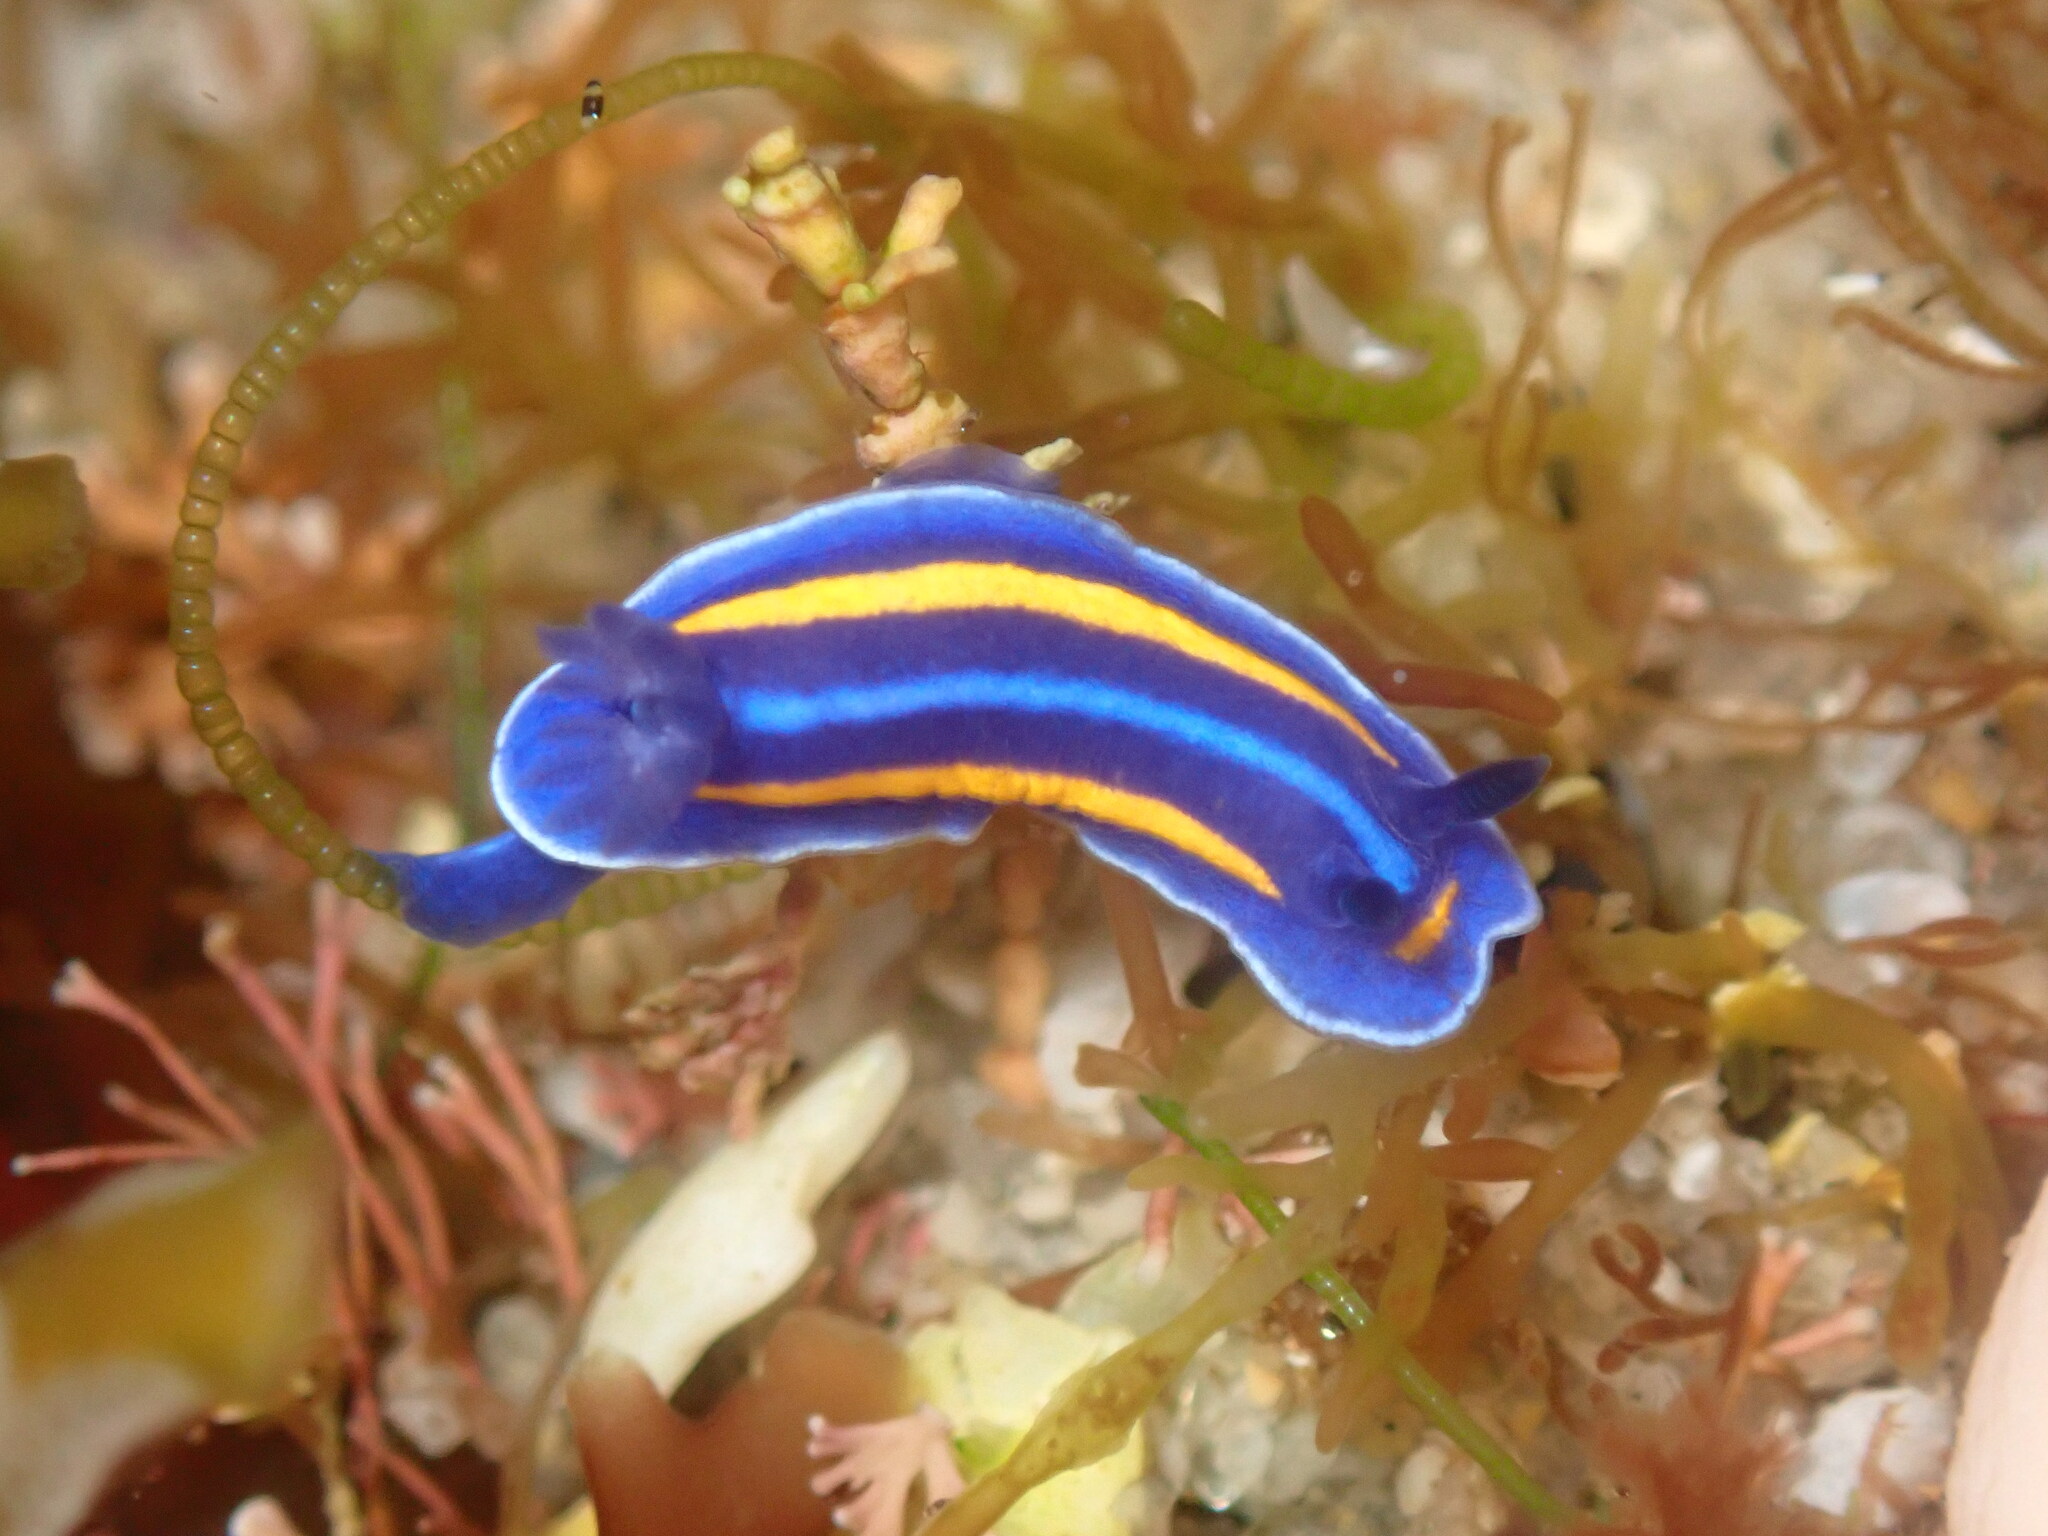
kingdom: Animalia
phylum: Mollusca
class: Gastropoda
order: Nudibranchia
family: Chromodorididae
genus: Felimare
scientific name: Felimare porterae
